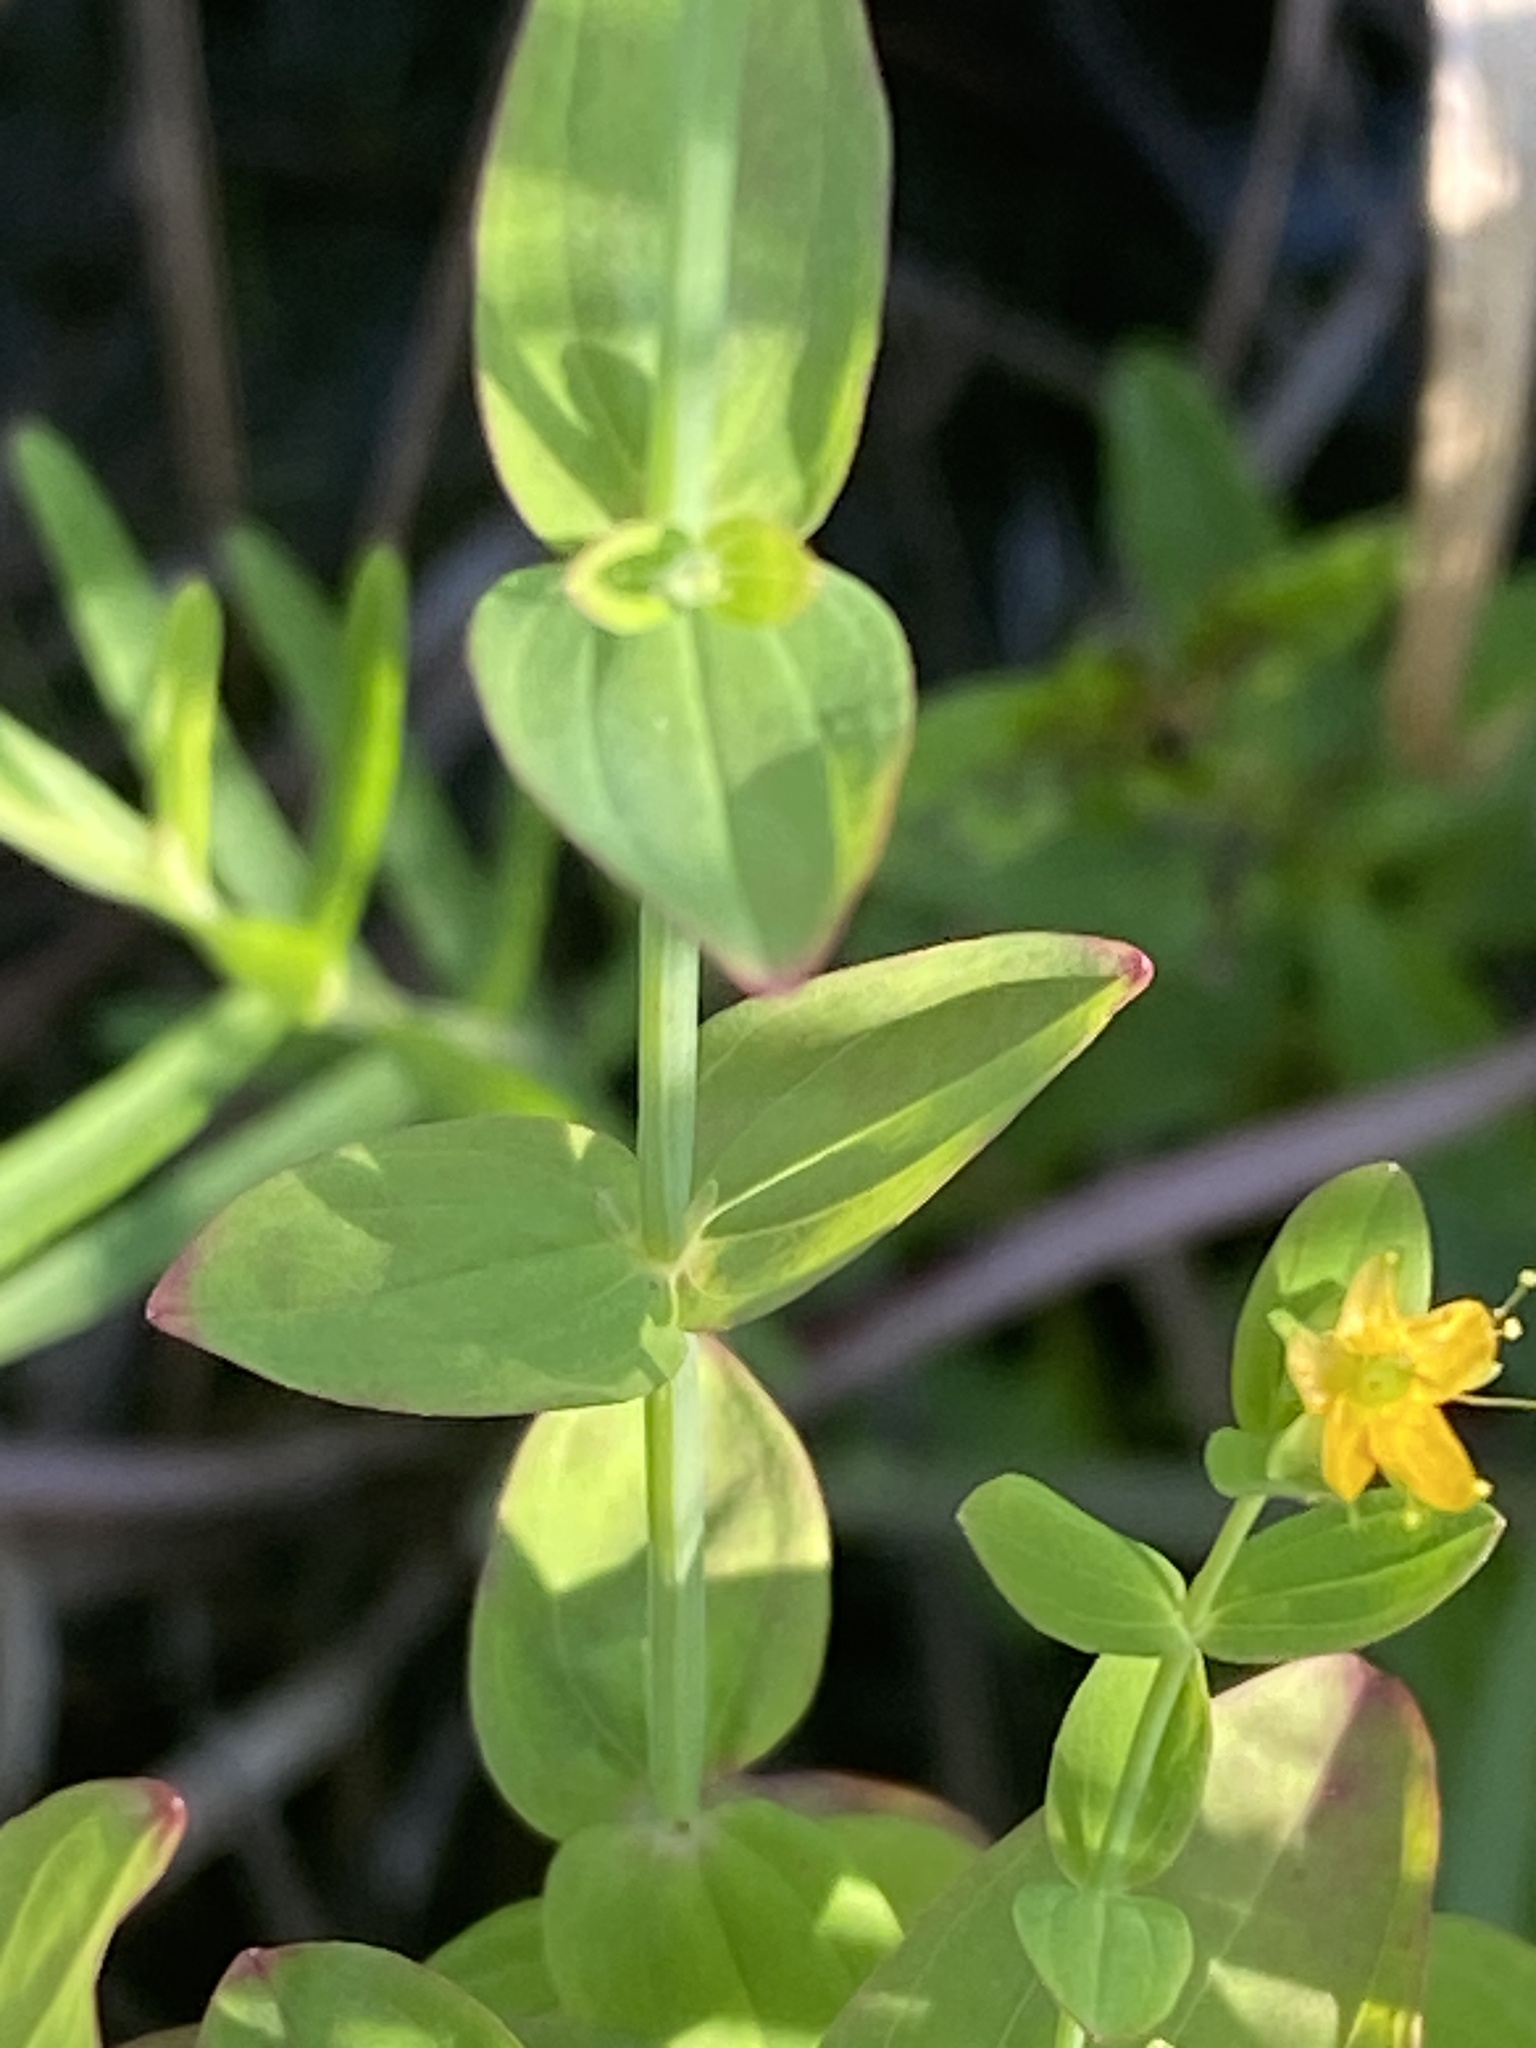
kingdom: Plantae
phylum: Tracheophyta
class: Magnoliopsida
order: Malpighiales
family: Hypericaceae
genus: Hypericum
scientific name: Hypericum mutilum
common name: Dwarf st. john's-wort
